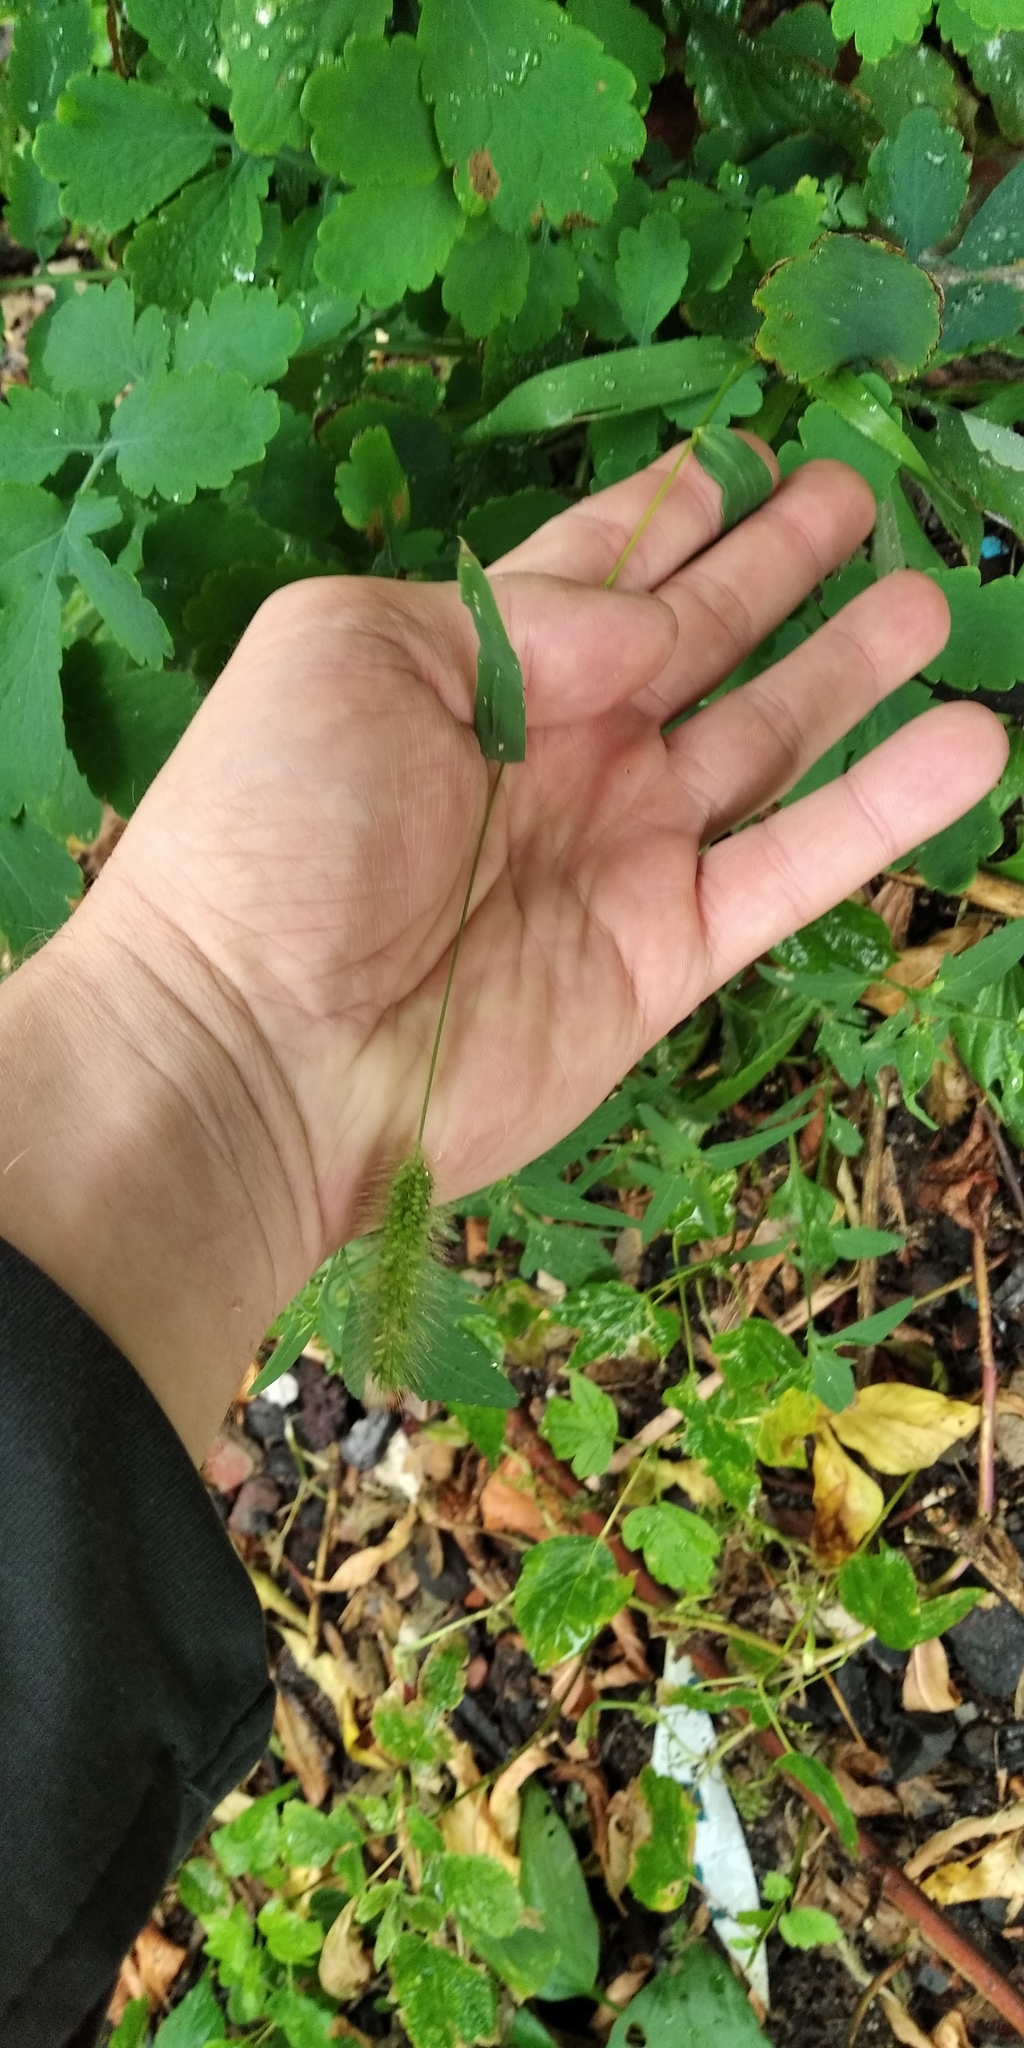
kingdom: Plantae
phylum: Tracheophyta
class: Liliopsida
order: Poales
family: Poaceae
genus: Setaria
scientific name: Setaria viridis
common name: Green bristlegrass
